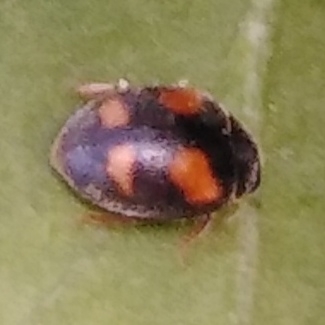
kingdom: Animalia
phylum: Arthropoda
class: Insecta
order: Coleoptera
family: Coccinellidae
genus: Nephus
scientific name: Nephus quadrimaculatus
